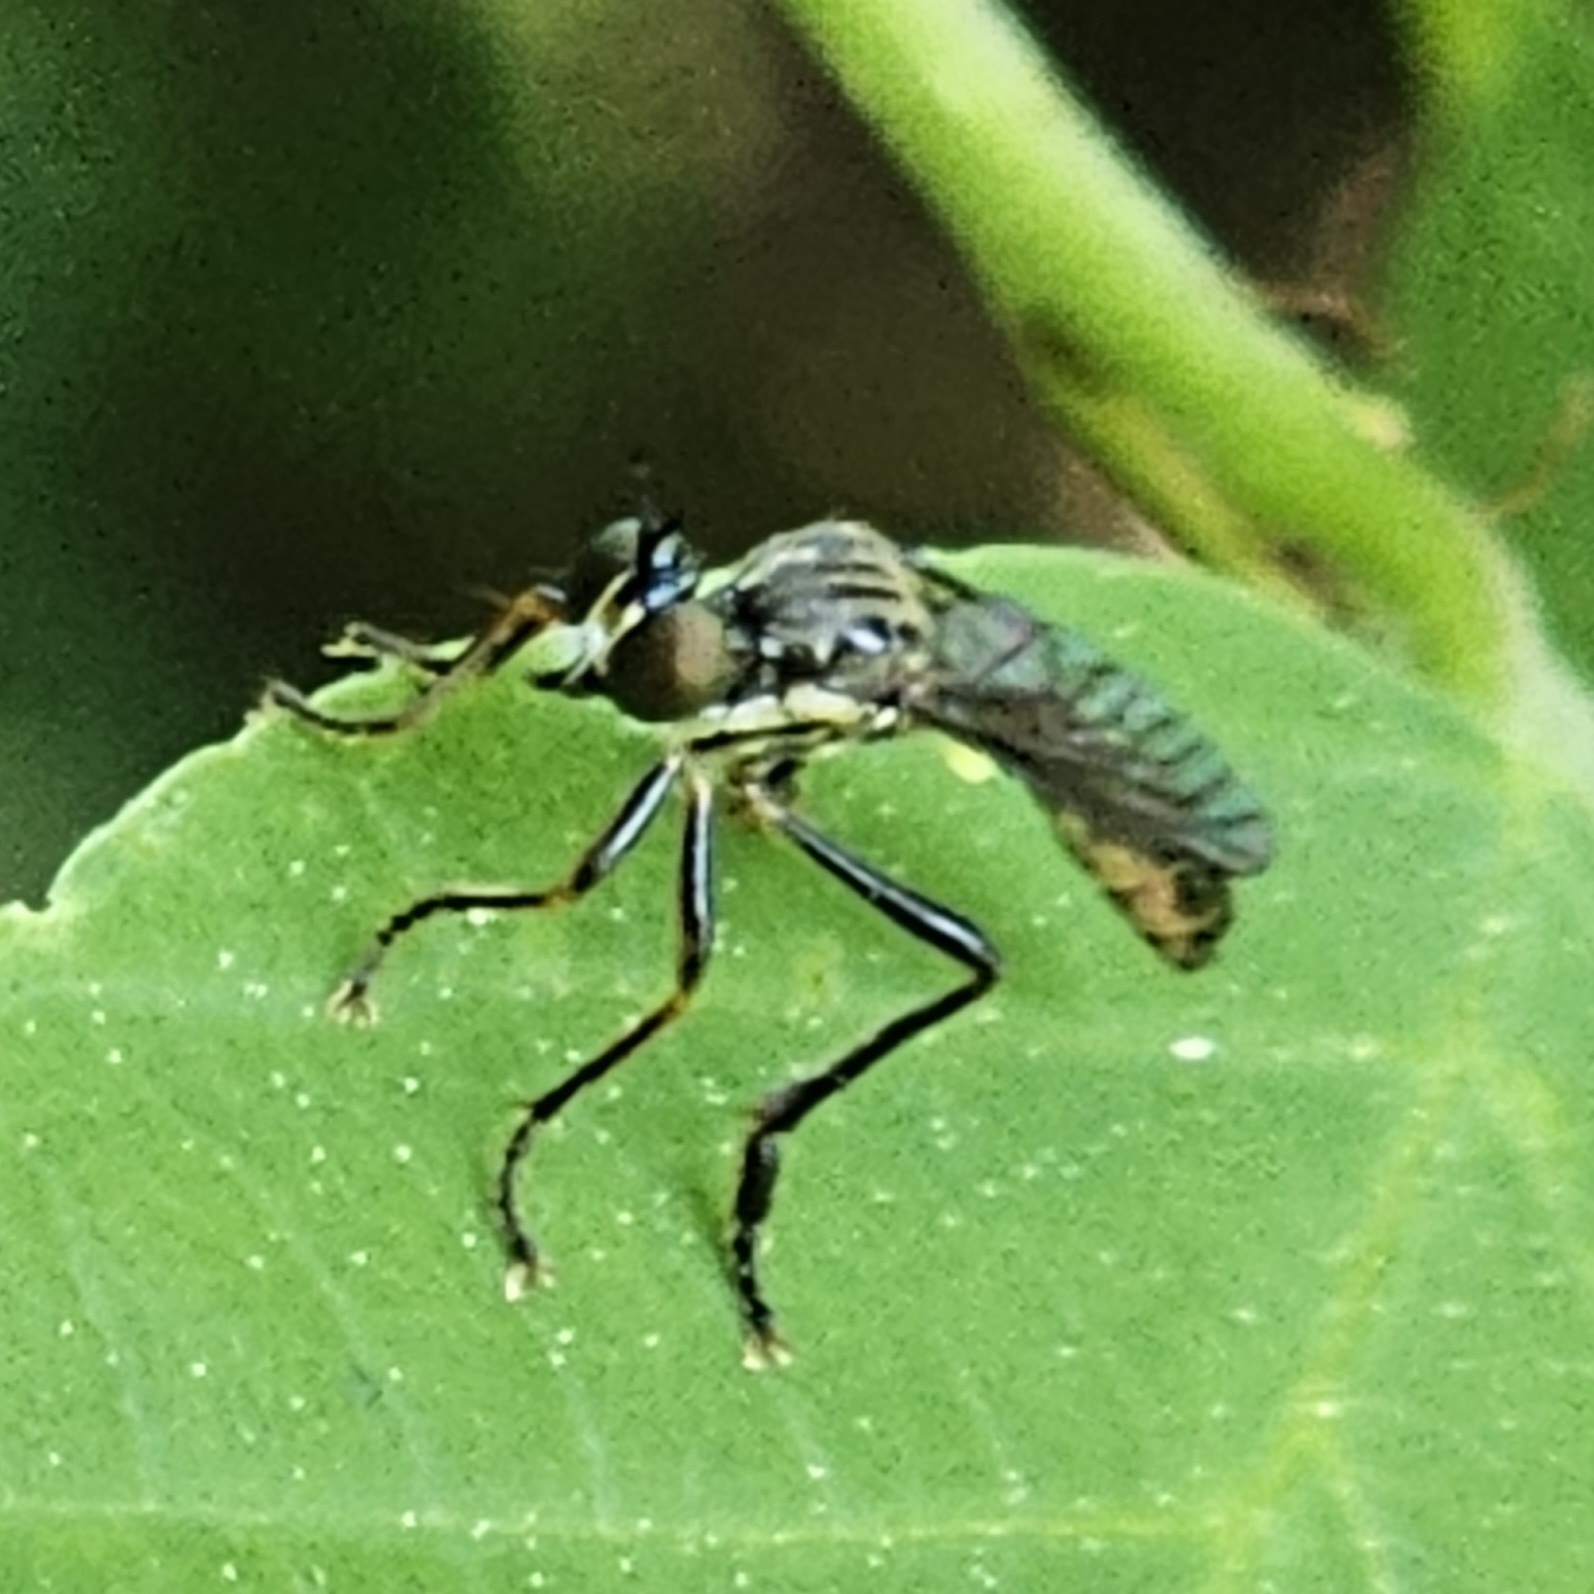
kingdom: Animalia
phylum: Arthropoda
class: Insecta
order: Diptera
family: Asilidae
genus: Dioctria
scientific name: Dioctria hyalipennis
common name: Stripe-legged robberfly
